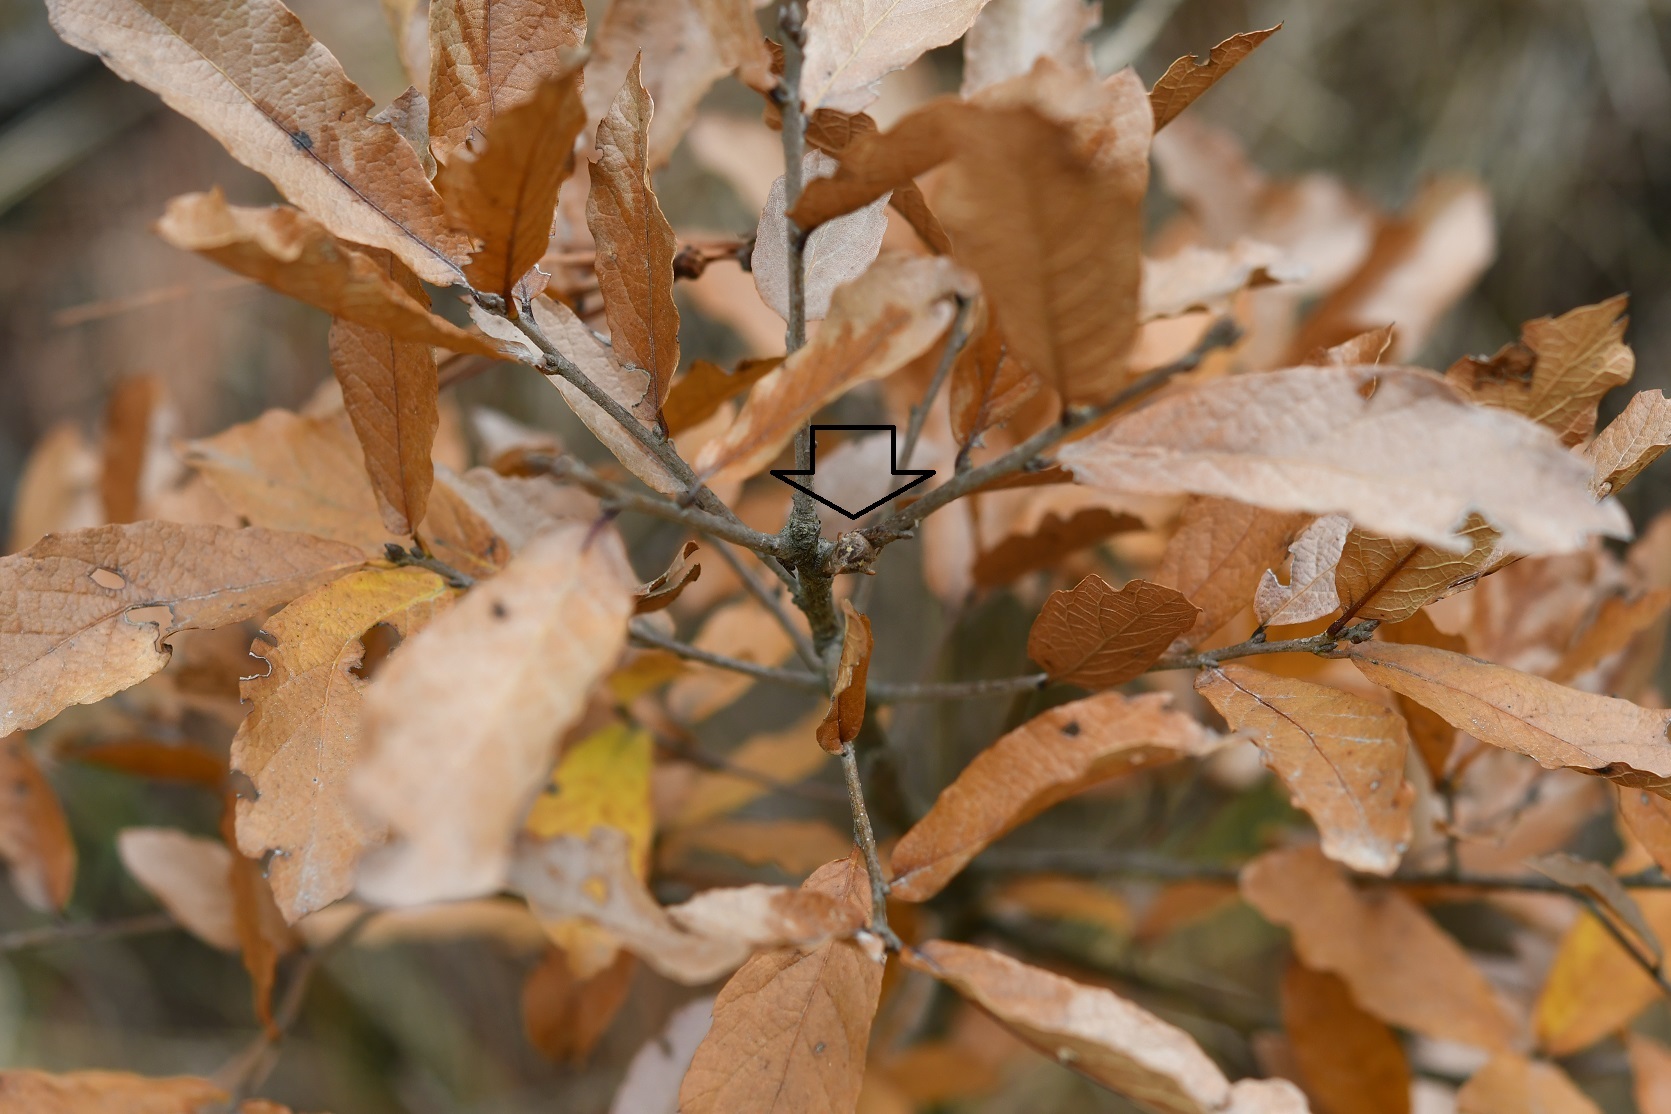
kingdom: Animalia
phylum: Arthropoda
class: Insecta
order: Hemiptera
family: Membracidae
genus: Platycotis
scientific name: Platycotis tuberculata
